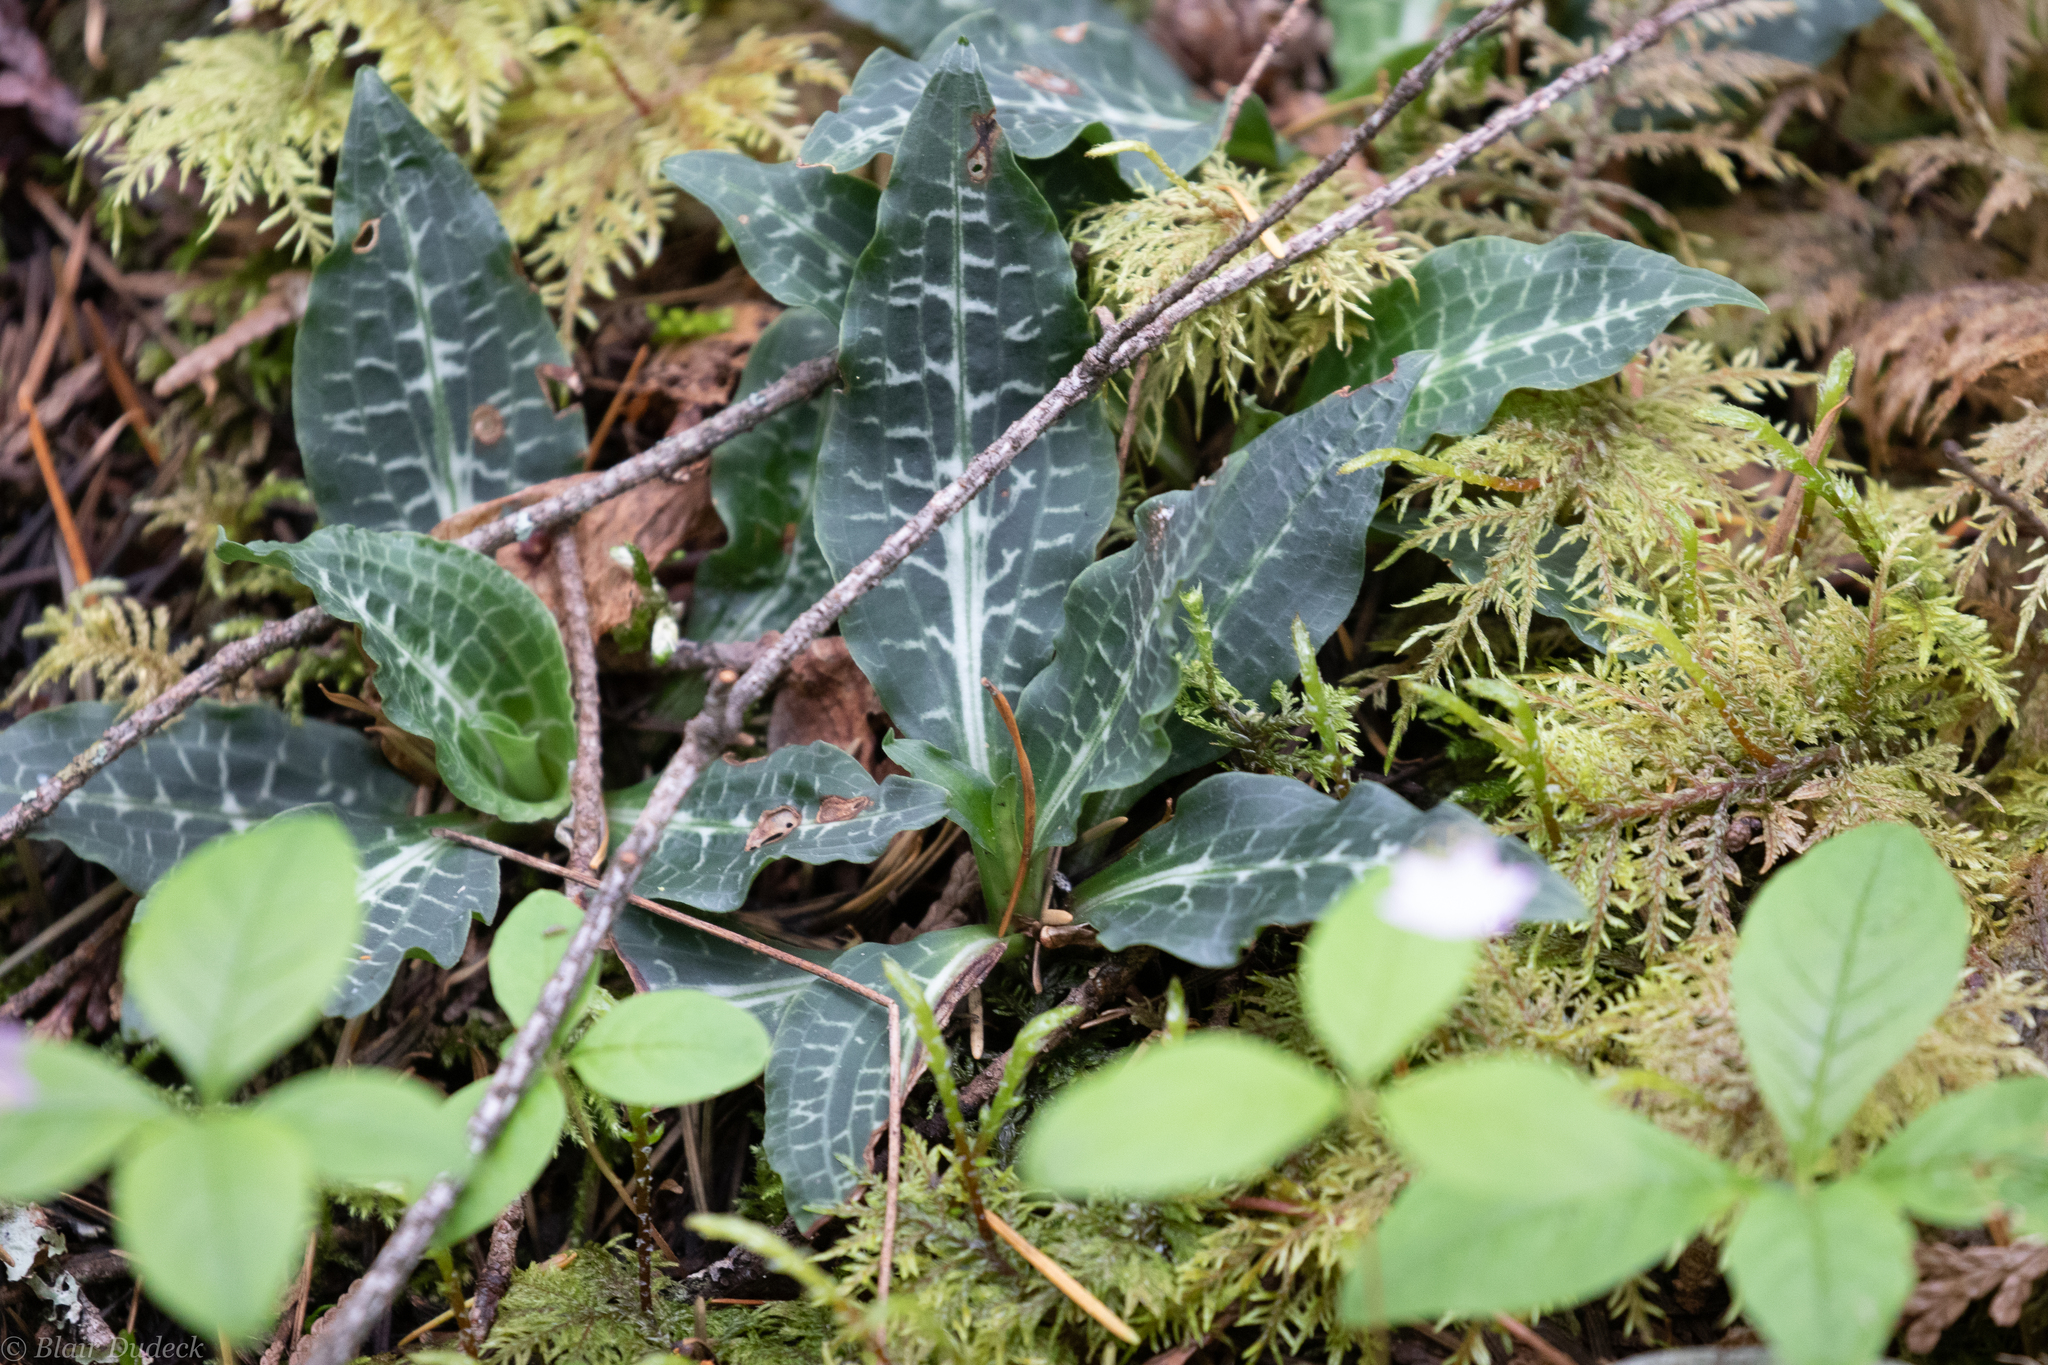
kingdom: Plantae
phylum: Tracheophyta
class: Liliopsida
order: Asparagales
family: Orchidaceae
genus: Goodyera
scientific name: Goodyera oblongifolia
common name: Giant rattlesnake-plantain
